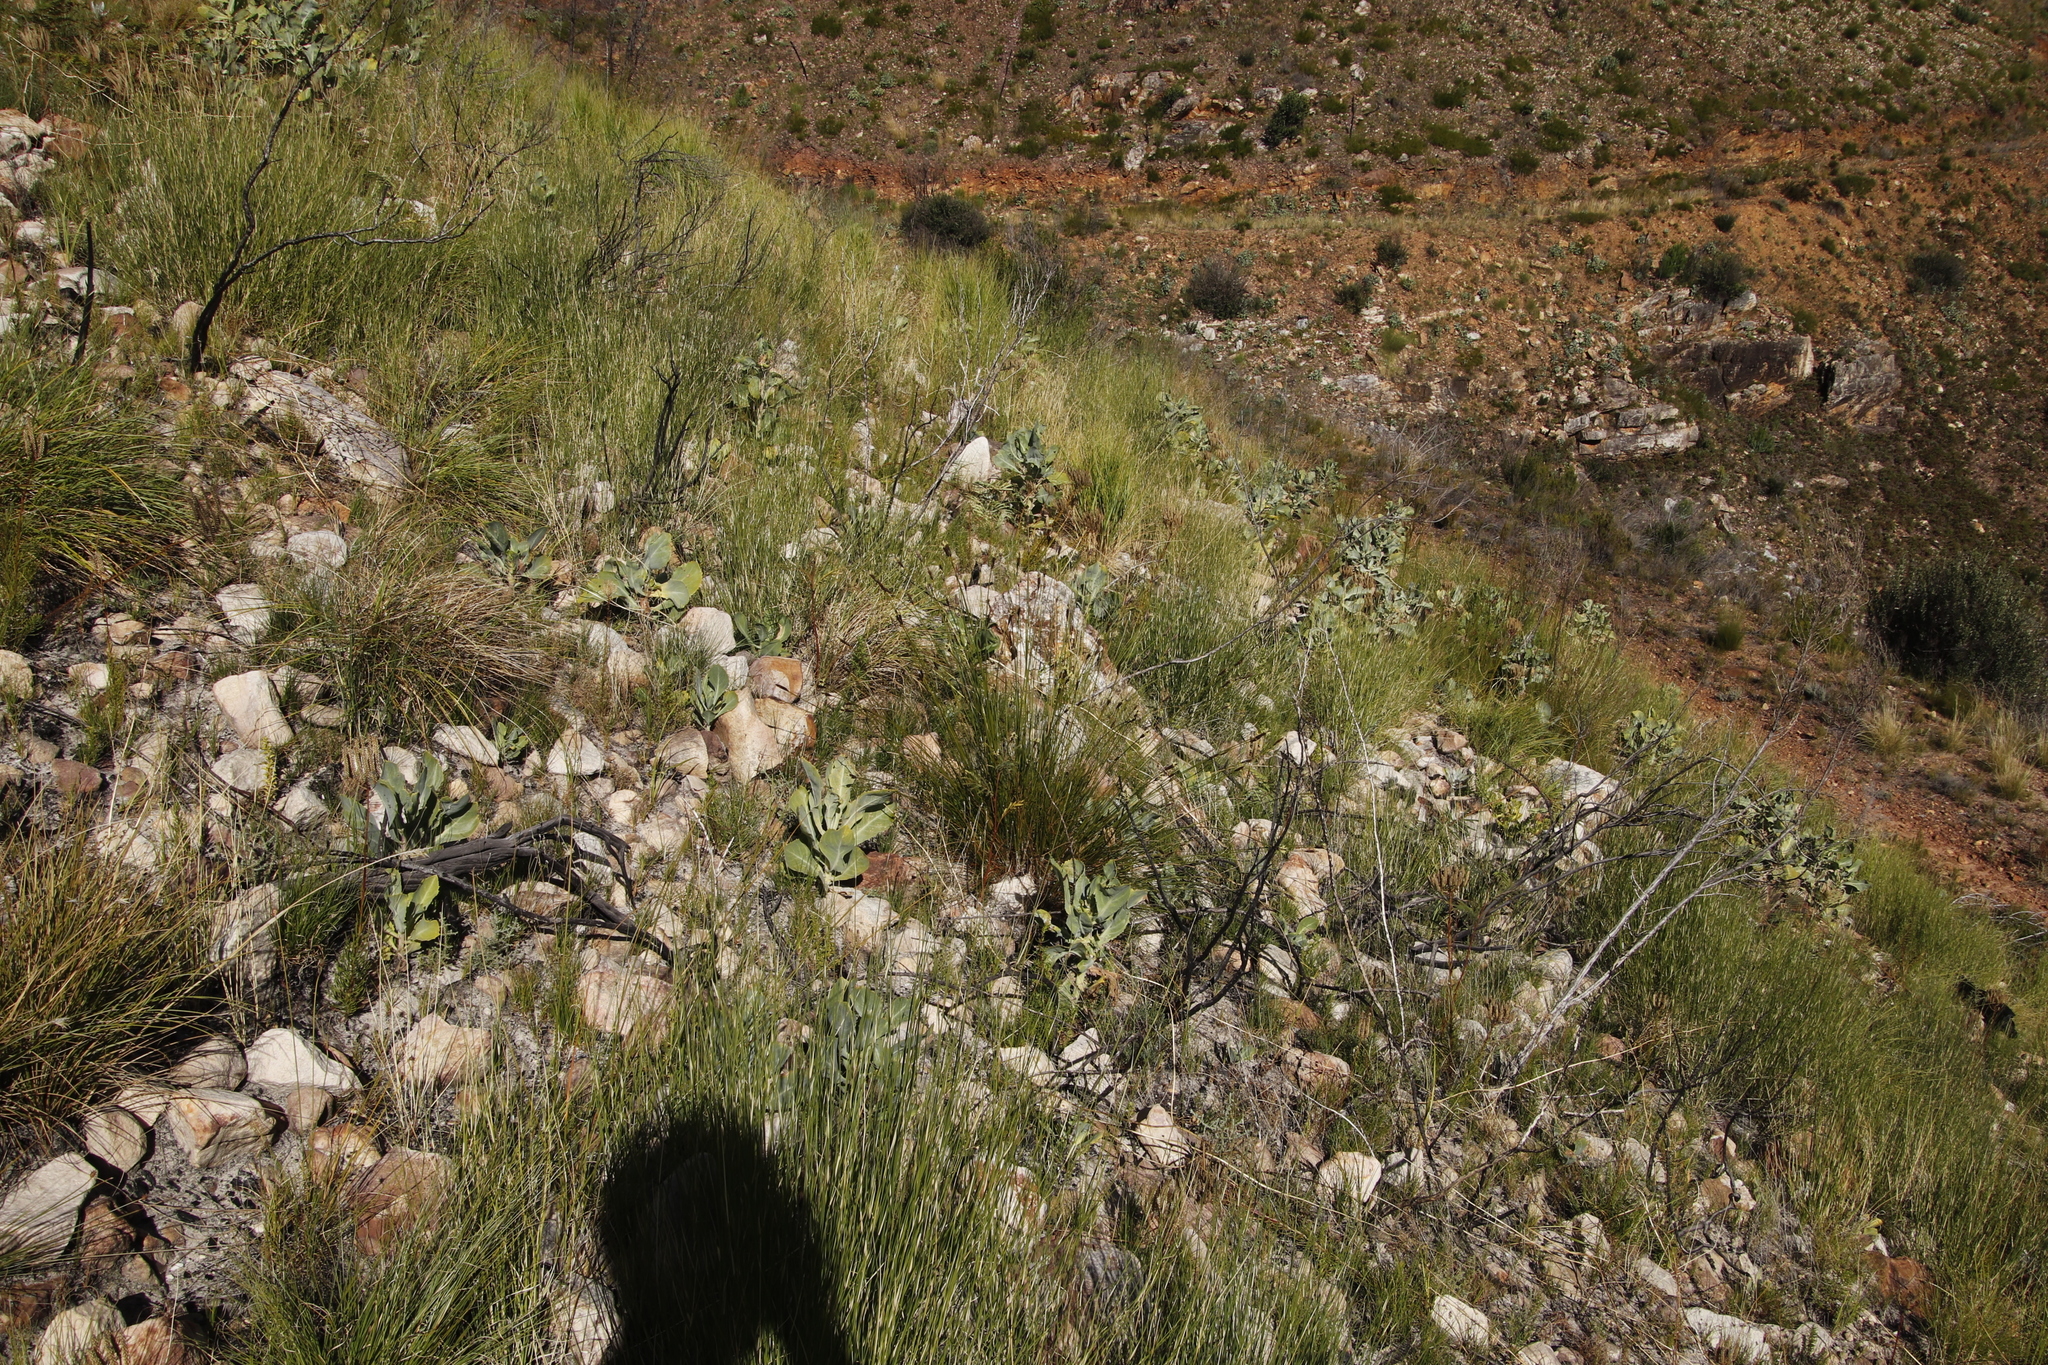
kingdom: Plantae
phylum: Tracheophyta
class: Magnoliopsida
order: Asterales
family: Asteraceae
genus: Othonna
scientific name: Othonna parviflora
